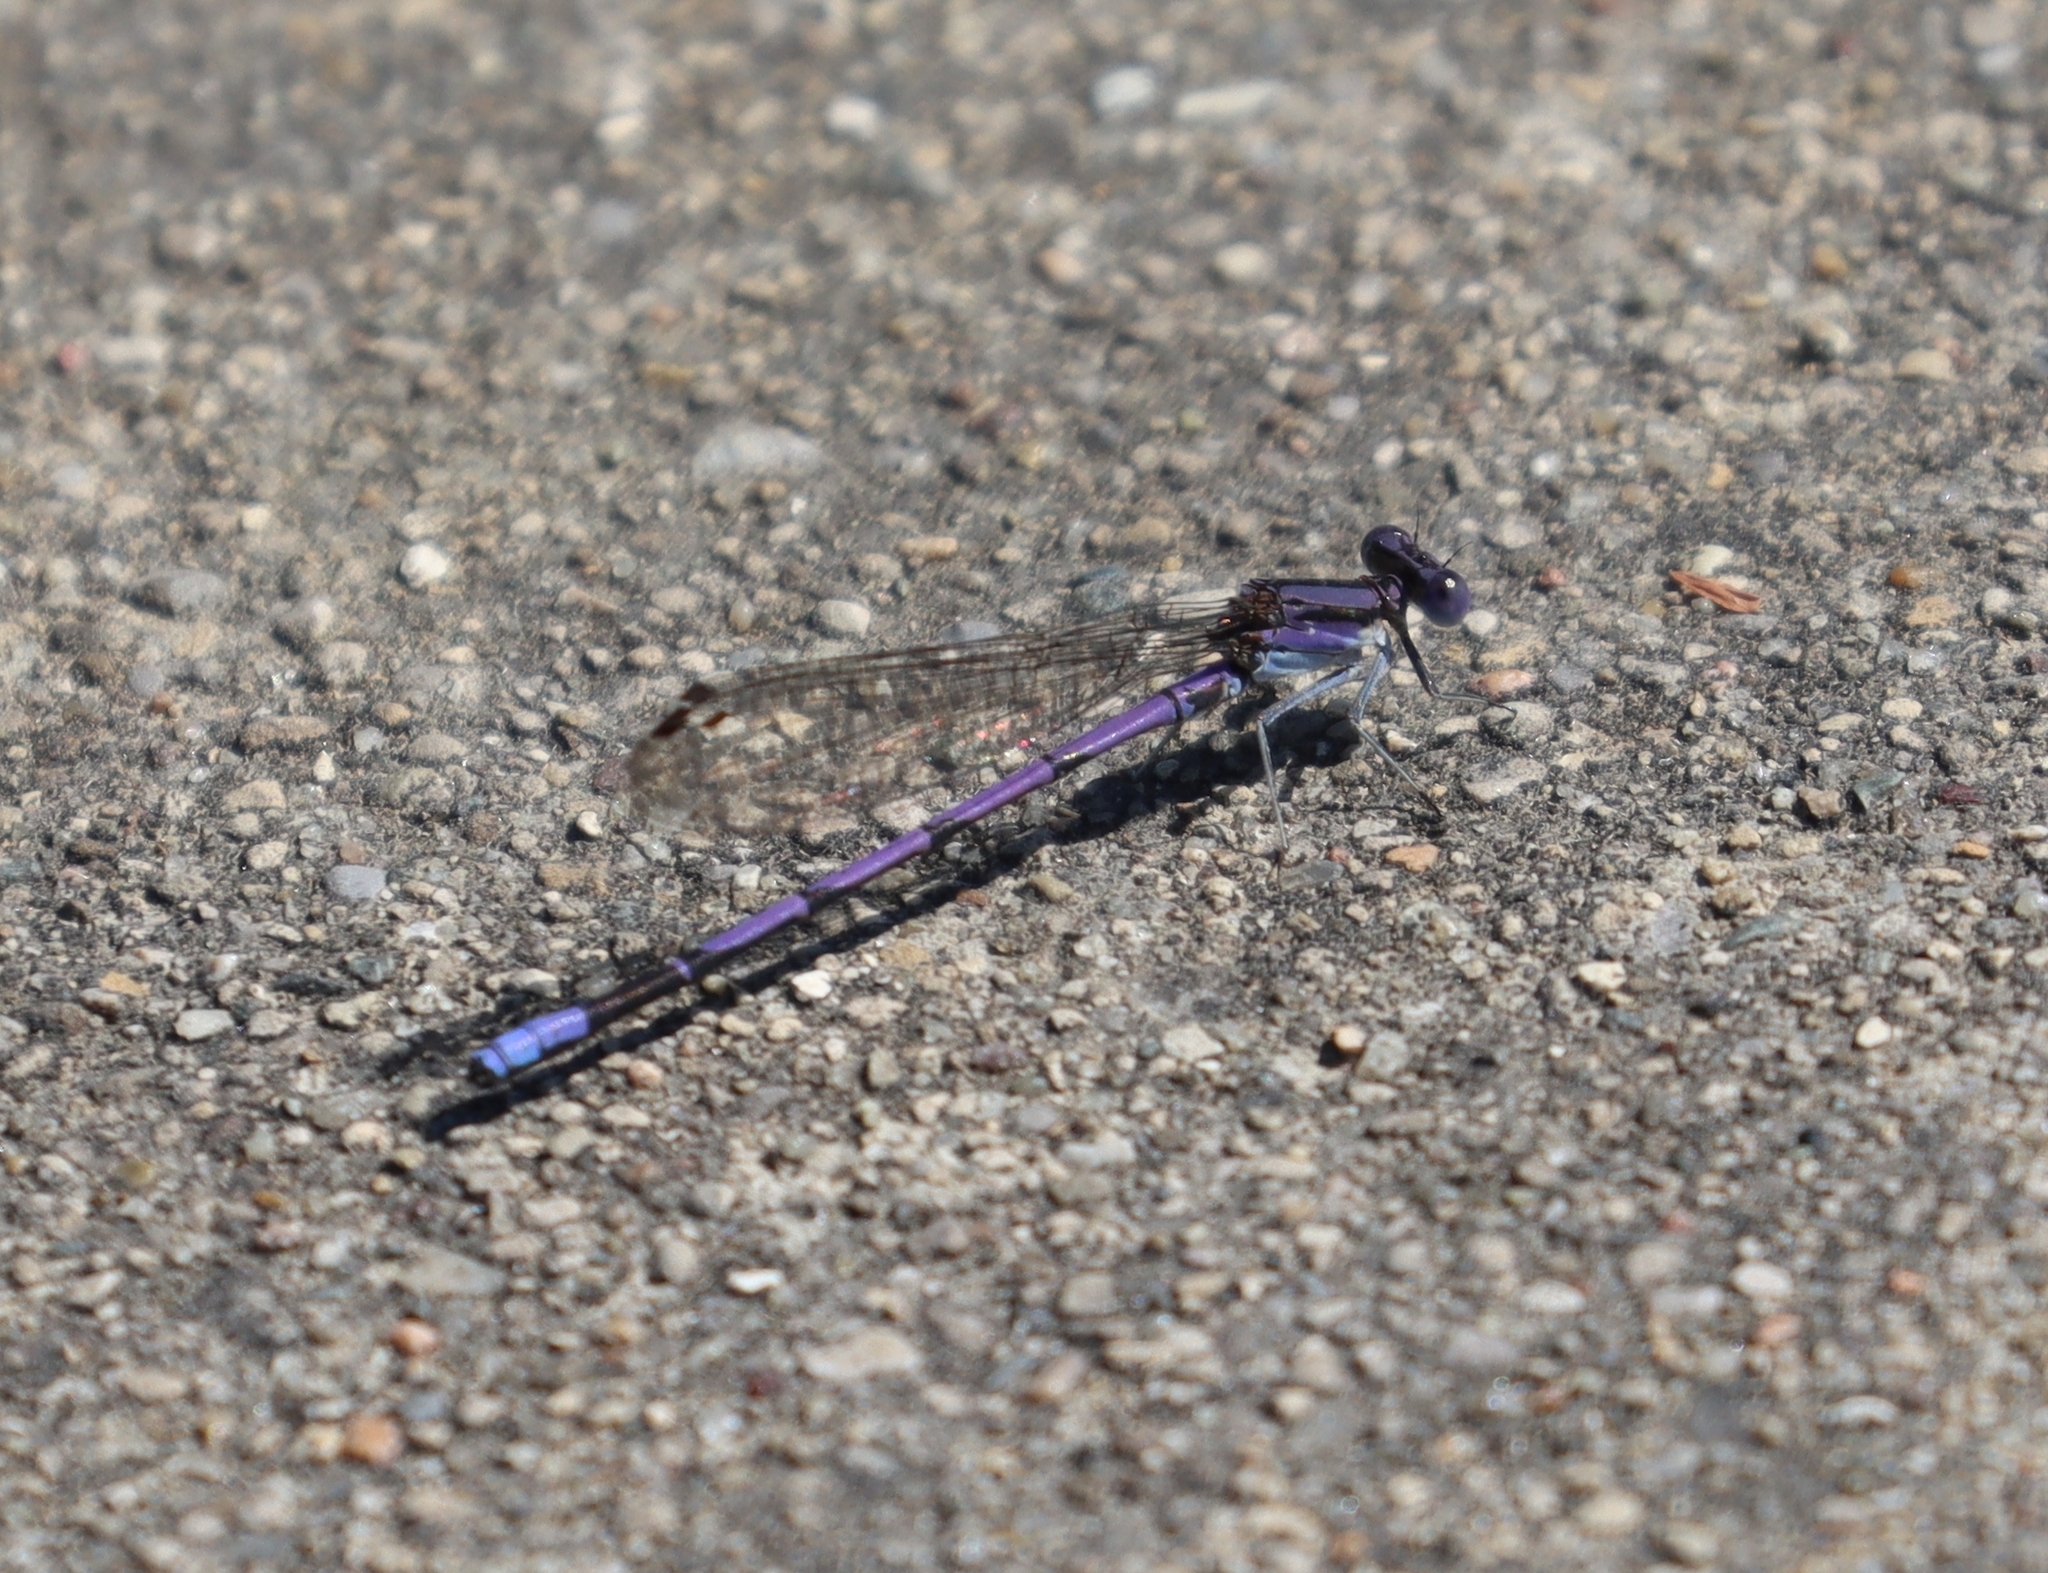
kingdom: Animalia
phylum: Arthropoda
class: Insecta
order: Odonata
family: Coenagrionidae
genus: Argia
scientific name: Argia fumipennis
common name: Variable dancer
